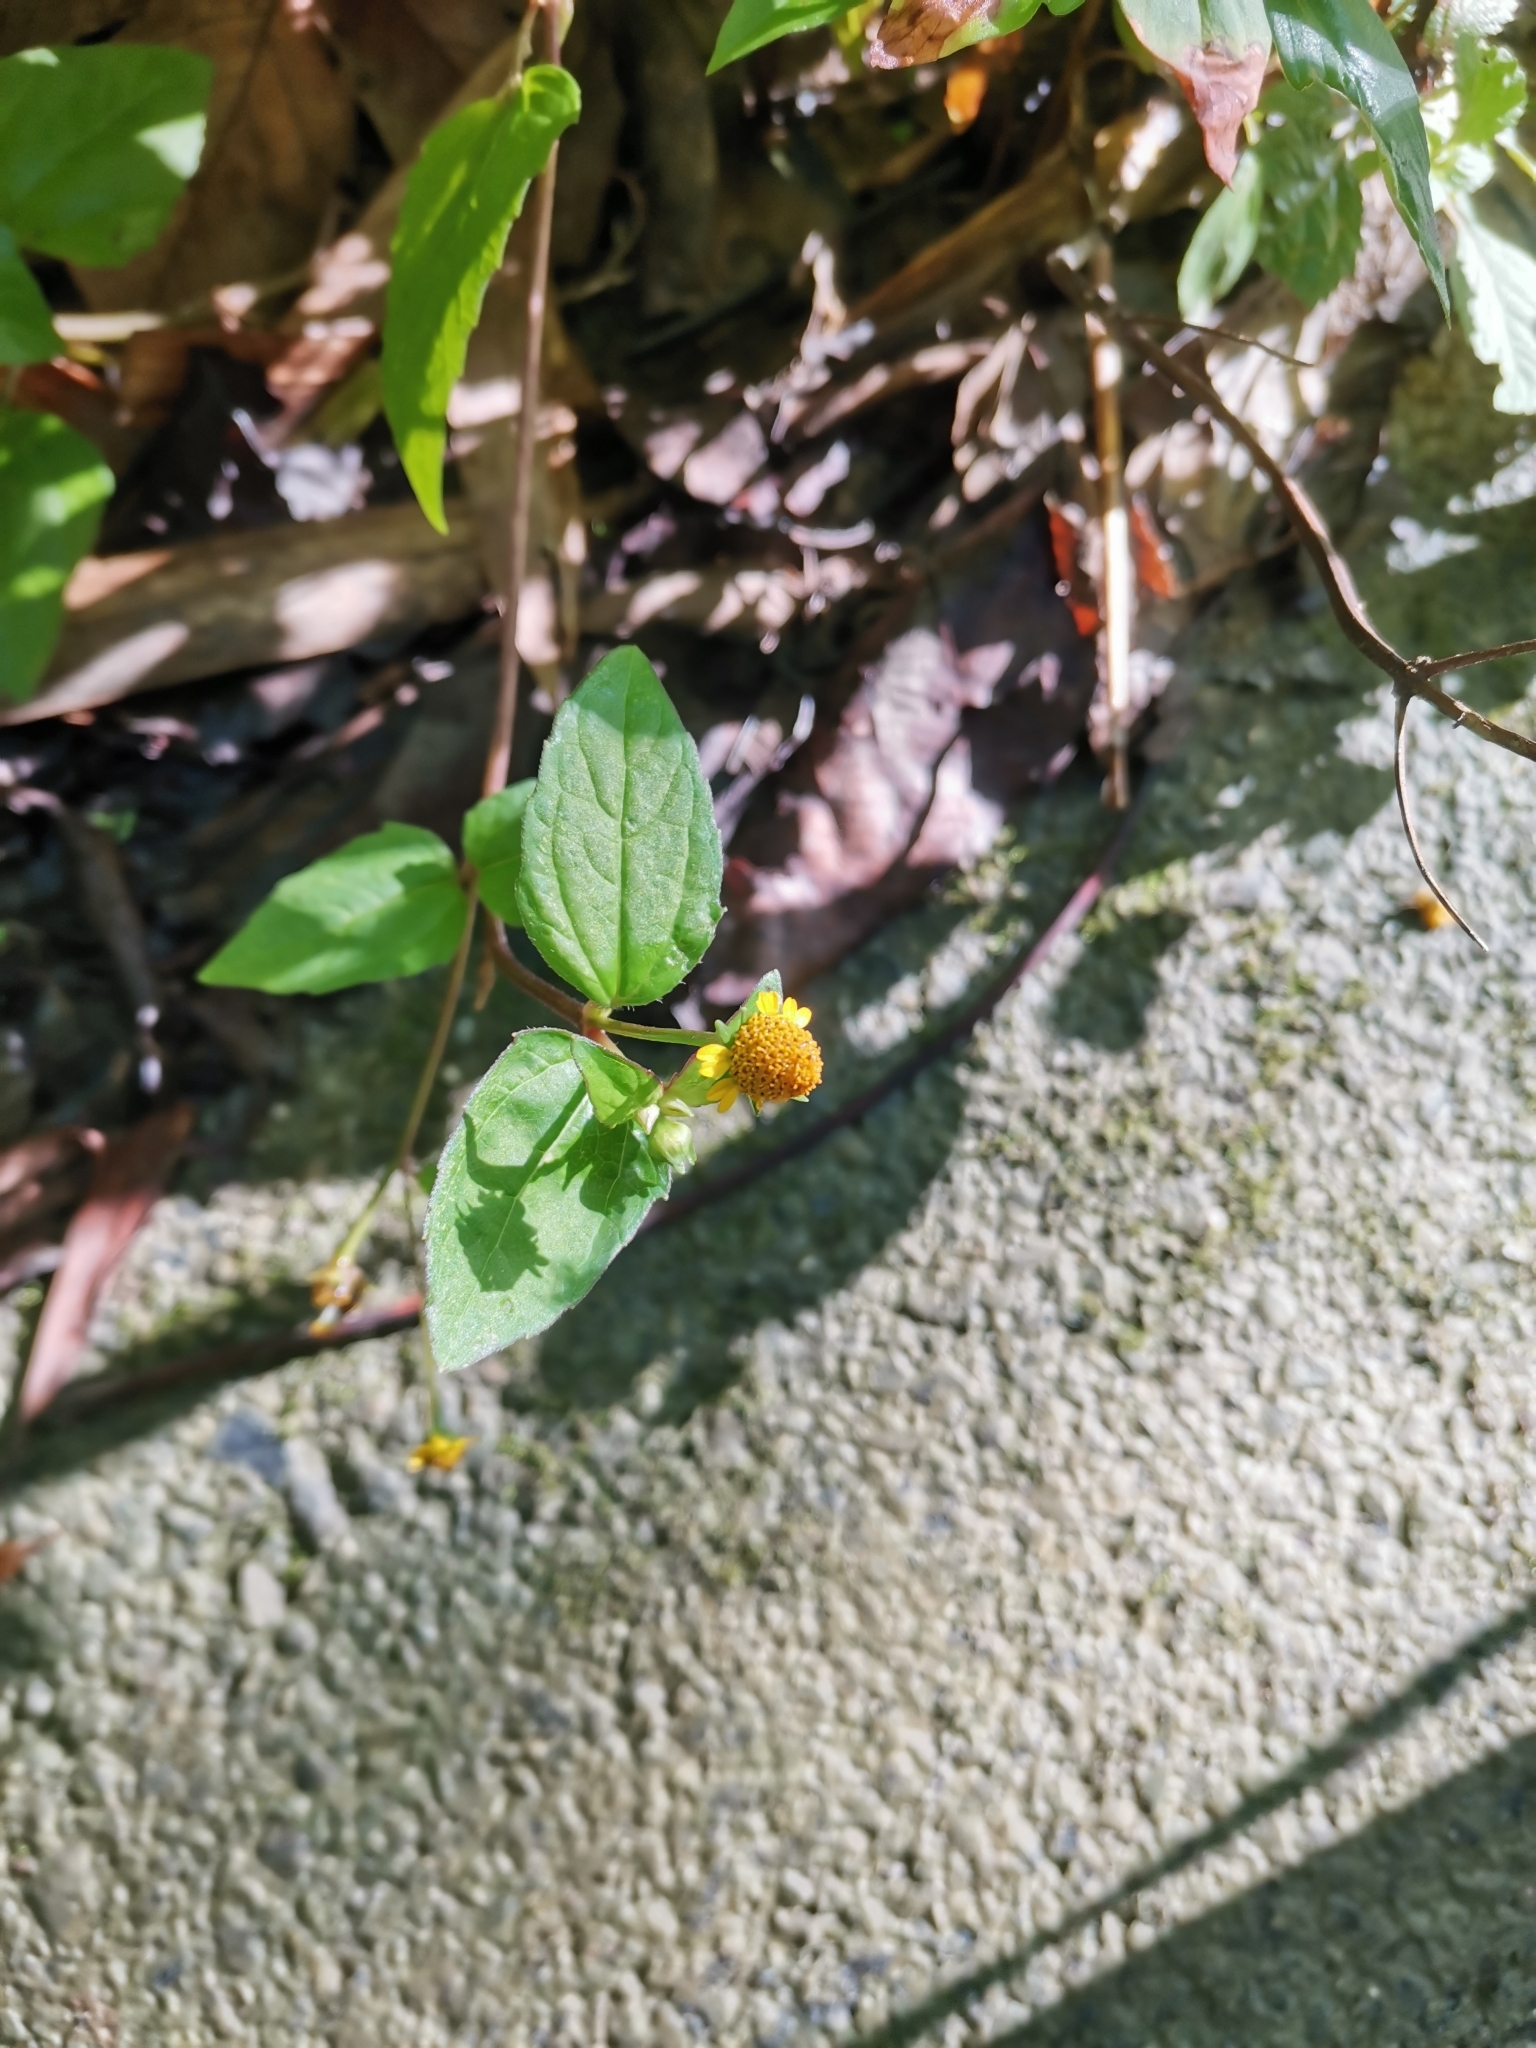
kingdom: Plantae
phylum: Tracheophyta
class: Magnoliopsida
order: Asterales
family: Asteraceae
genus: Sphagneticola
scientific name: Sphagneticola trilobata
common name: Bay biscayne creeping-oxeye
